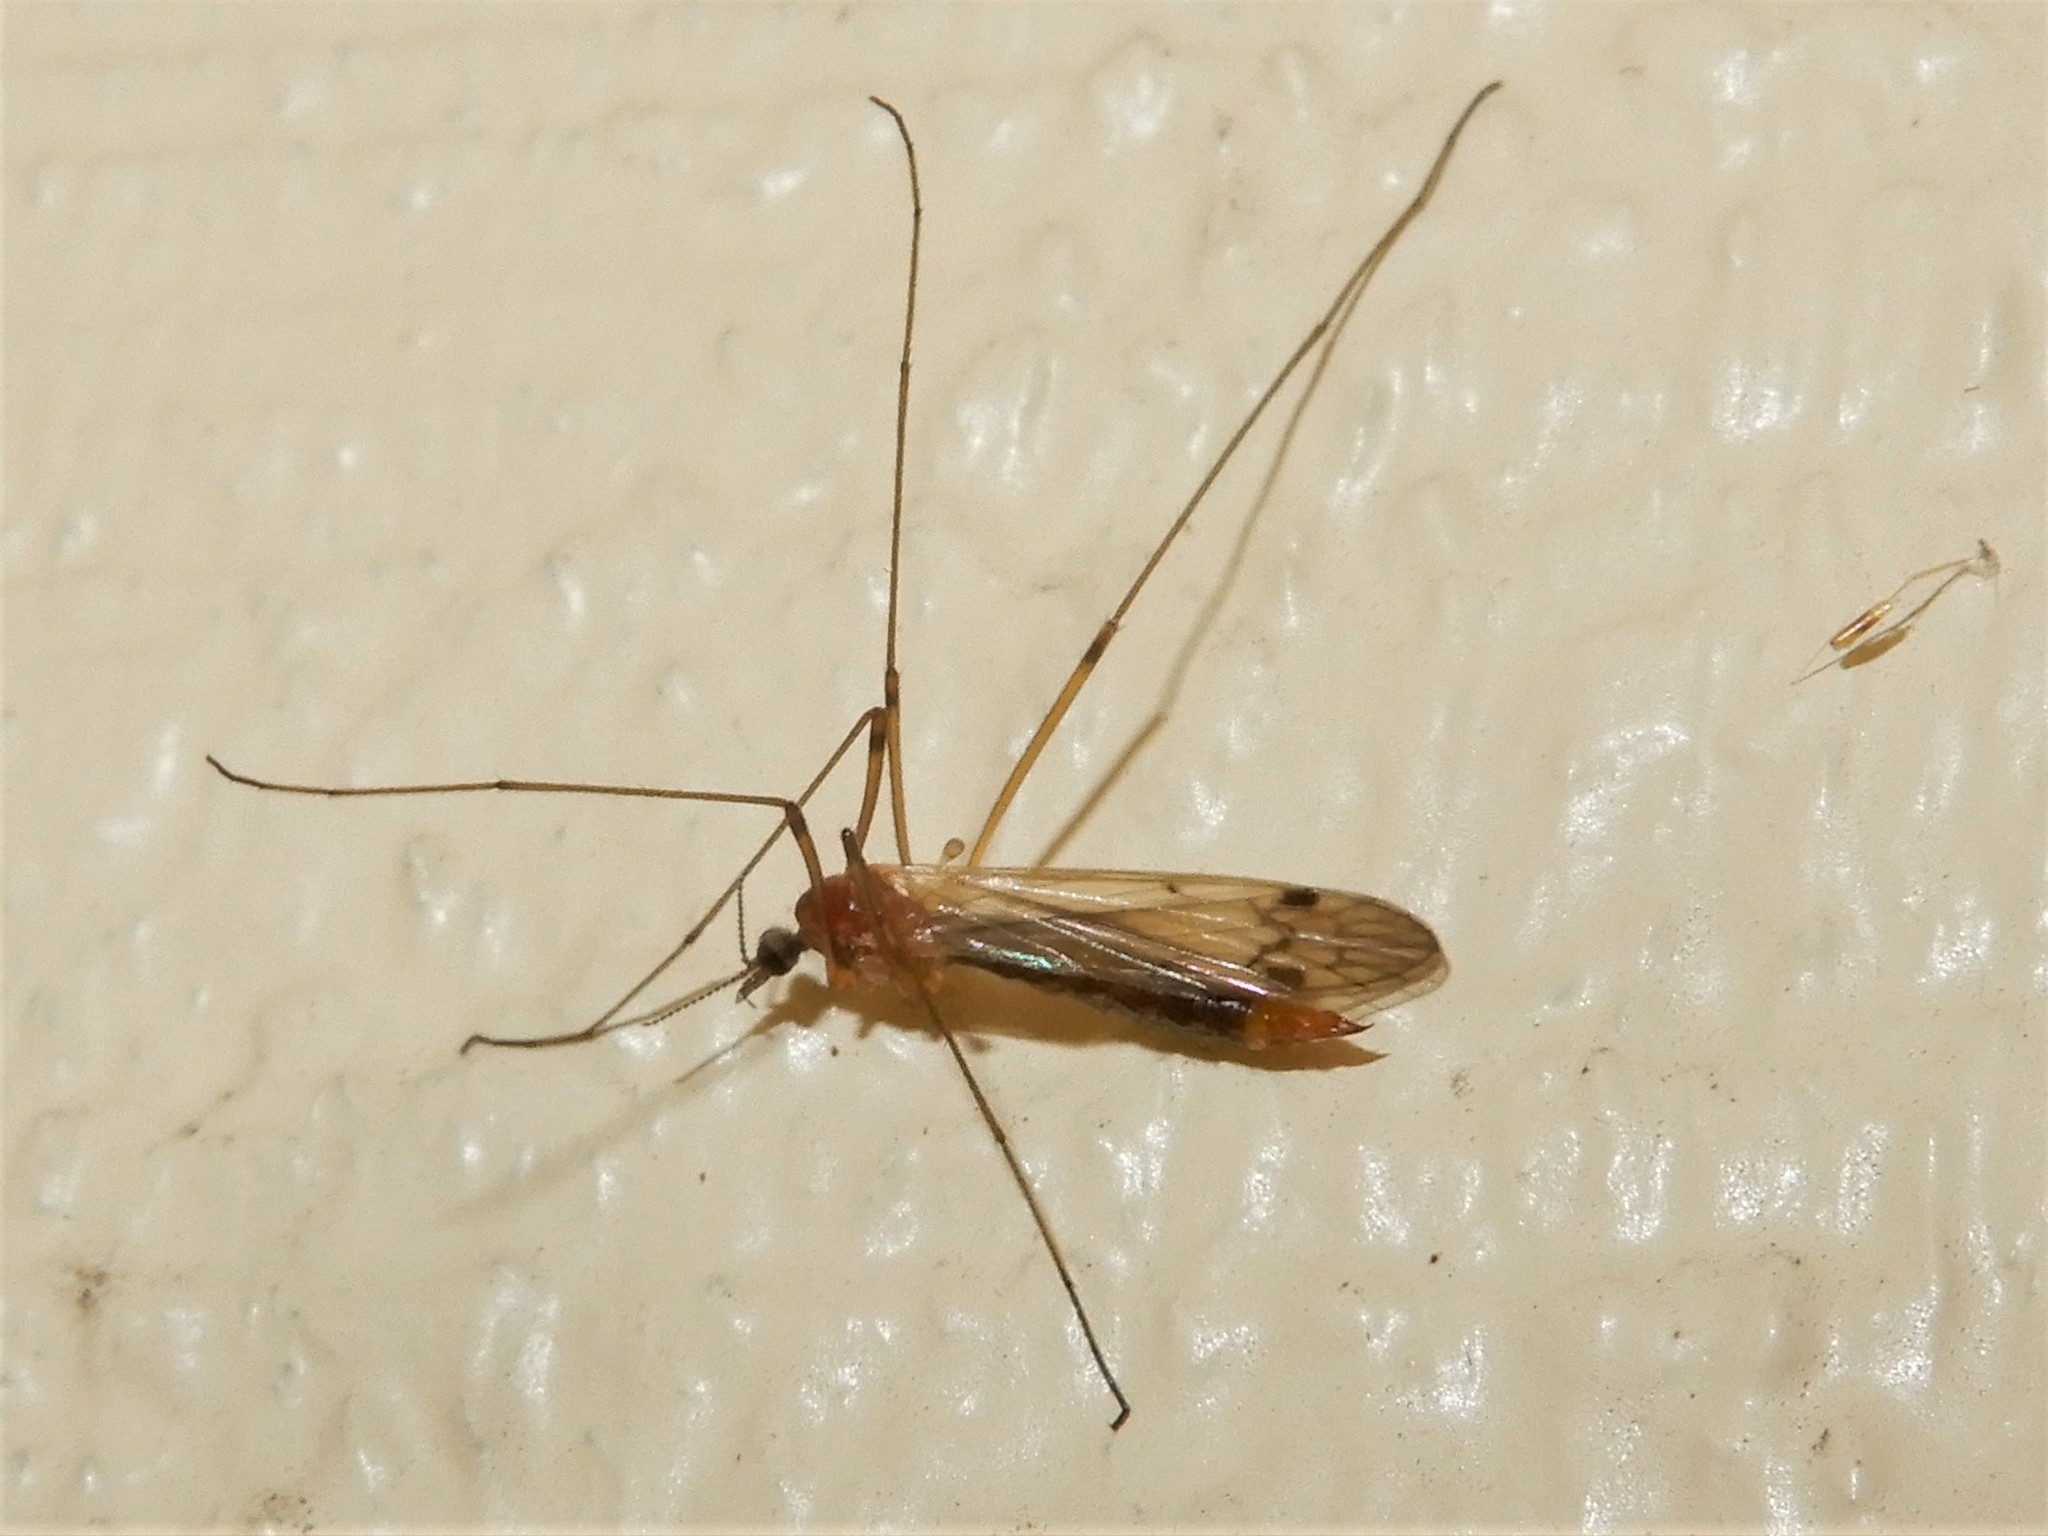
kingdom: Animalia
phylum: Arthropoda
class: Insecta
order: Diptera
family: Limoniidae
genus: Dicranomyia
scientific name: Dicranomyia cubitalis
